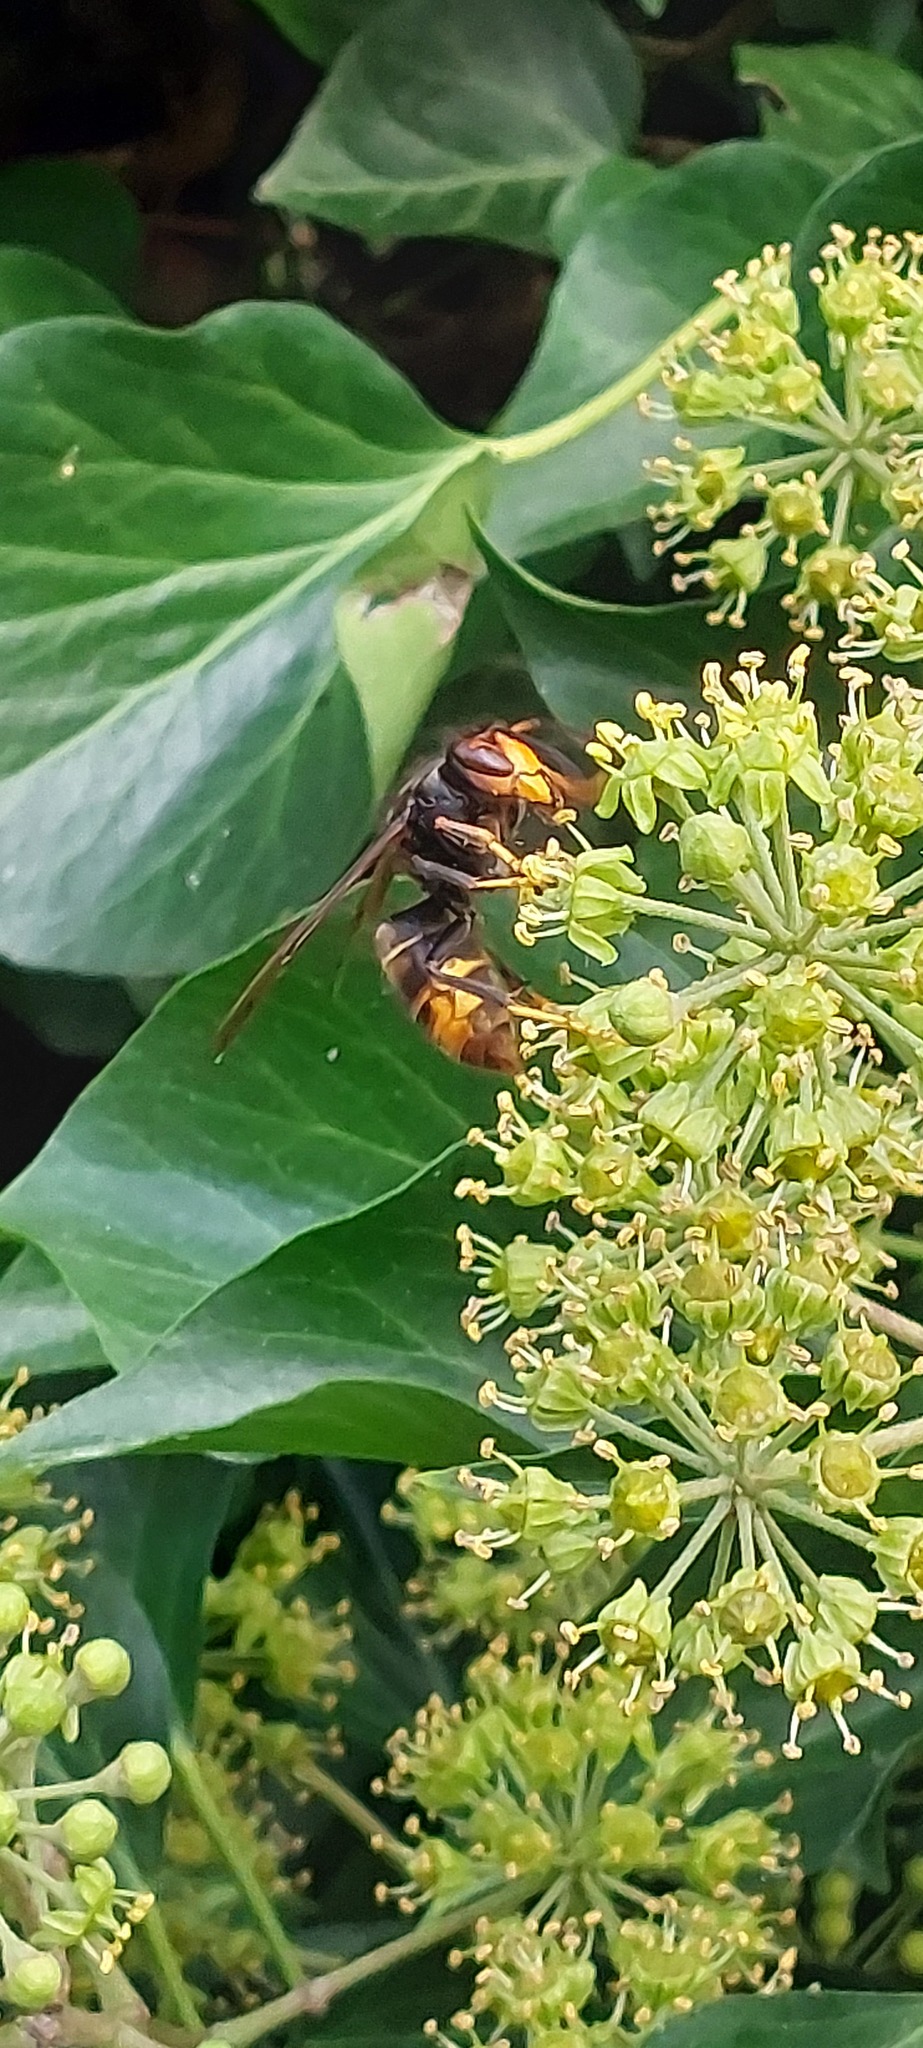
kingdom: Animalia
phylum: Arthropoda
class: Insecta
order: Hymenoptera
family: Vespidae
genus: Vespa
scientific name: Vespa velutina
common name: Asian hornet
